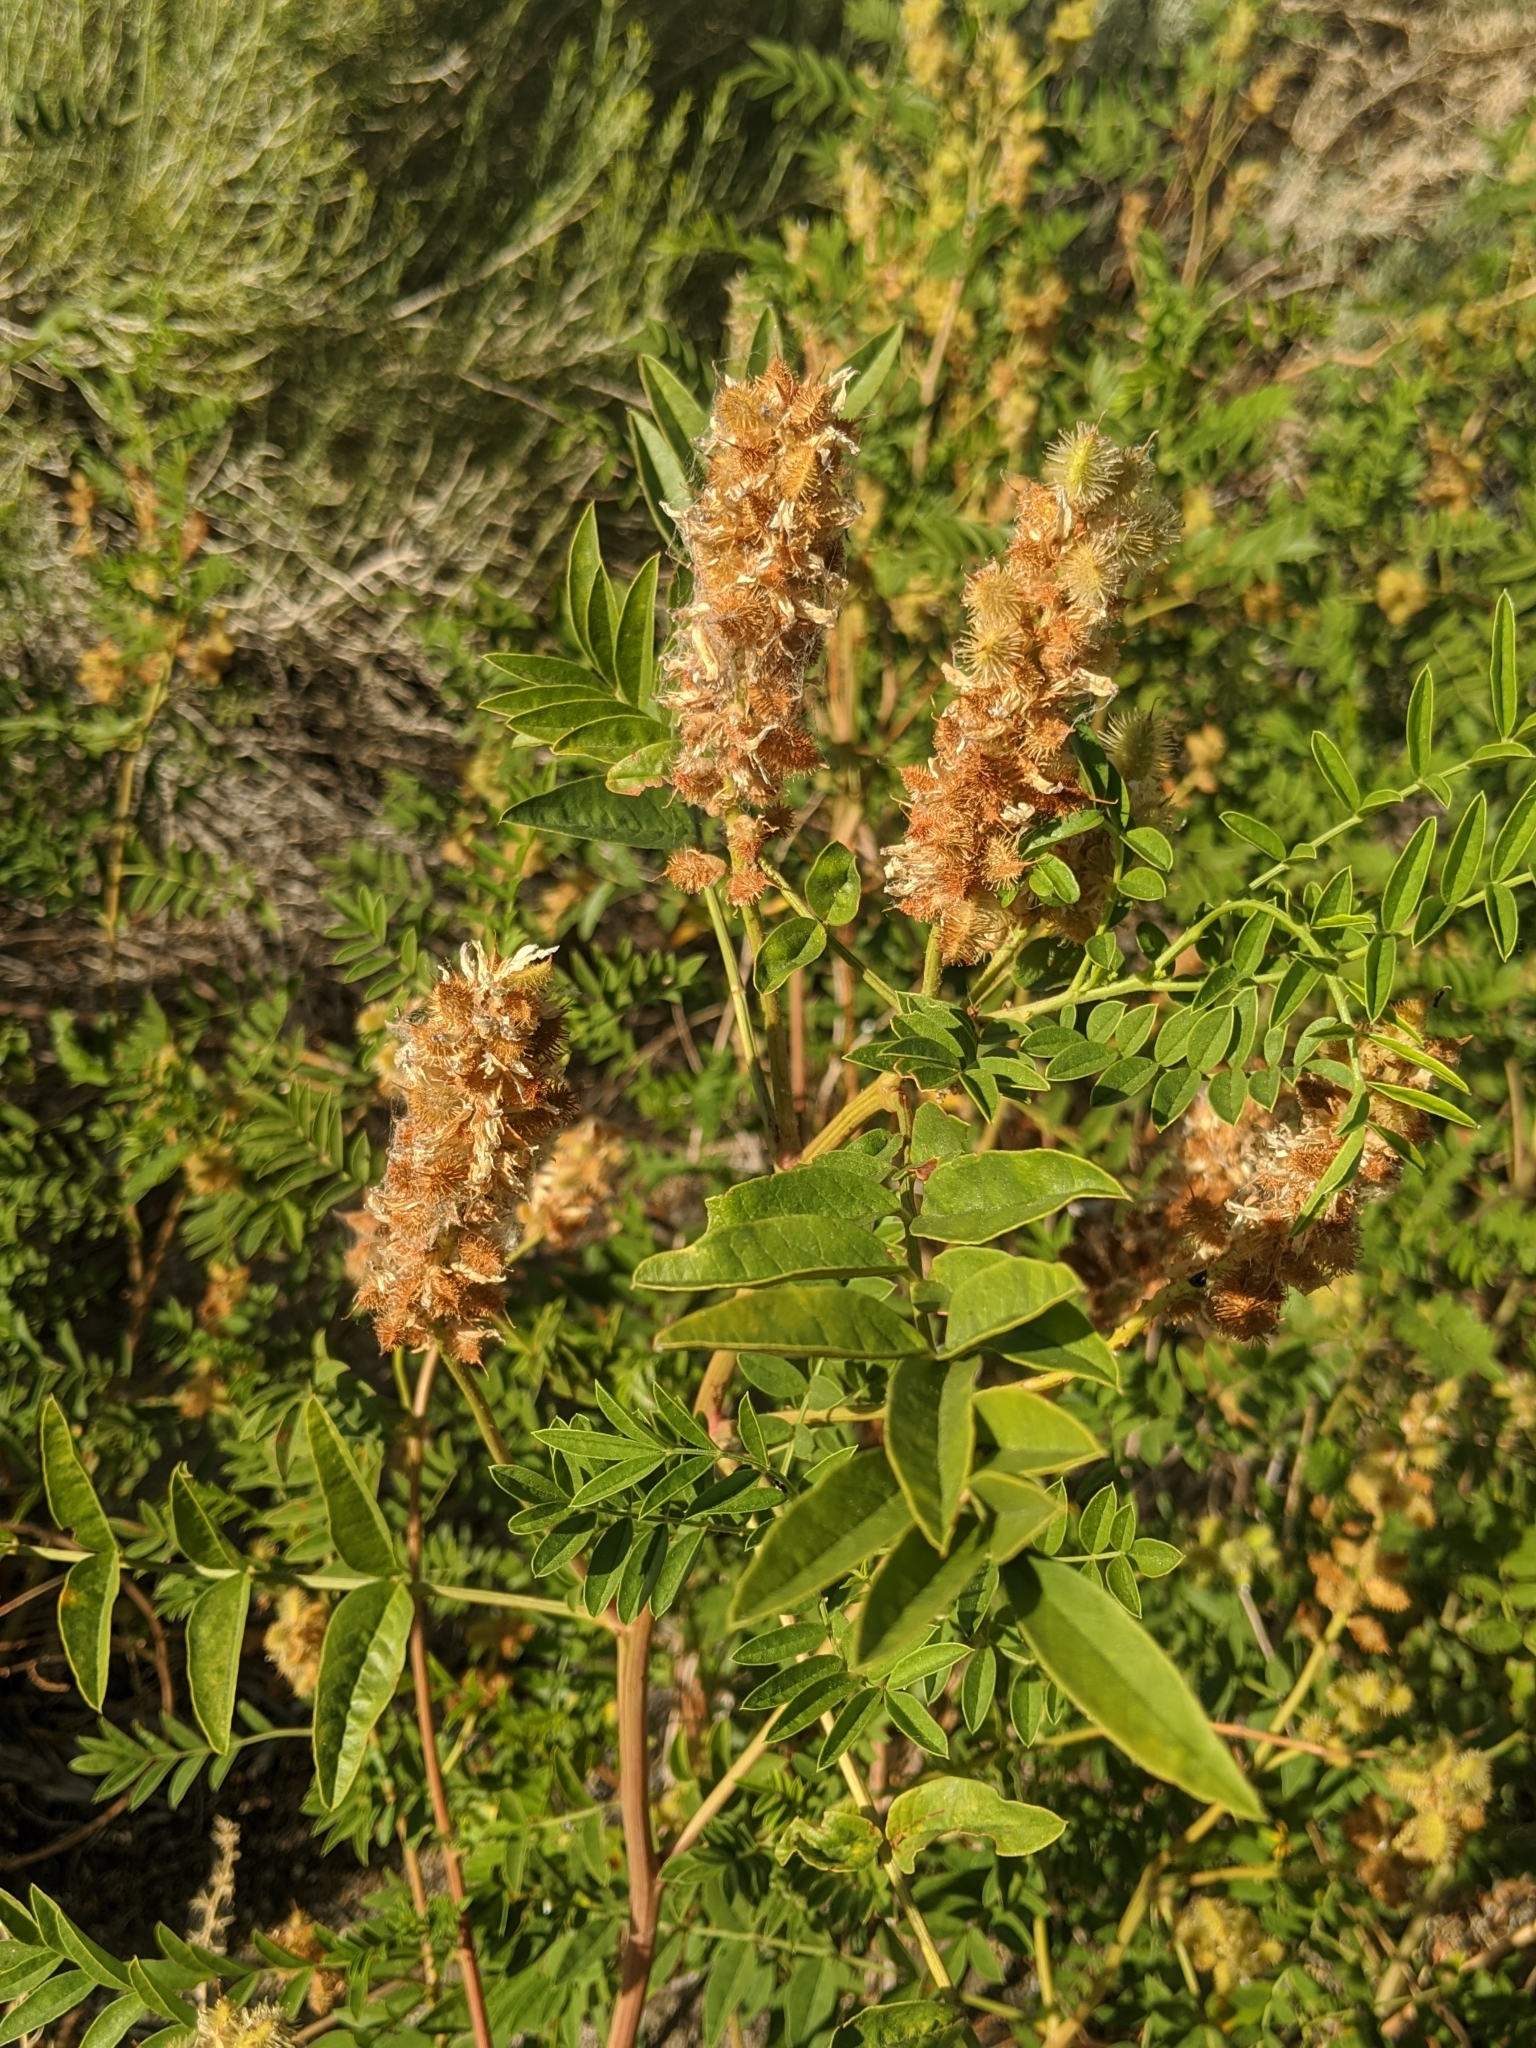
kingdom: Plantae
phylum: Tracheophyta
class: Magnoliopsida
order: Fabales
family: Fabaceae
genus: Glycyrrhiza
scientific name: Glycyrrhiza lepidota
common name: American liquorice
